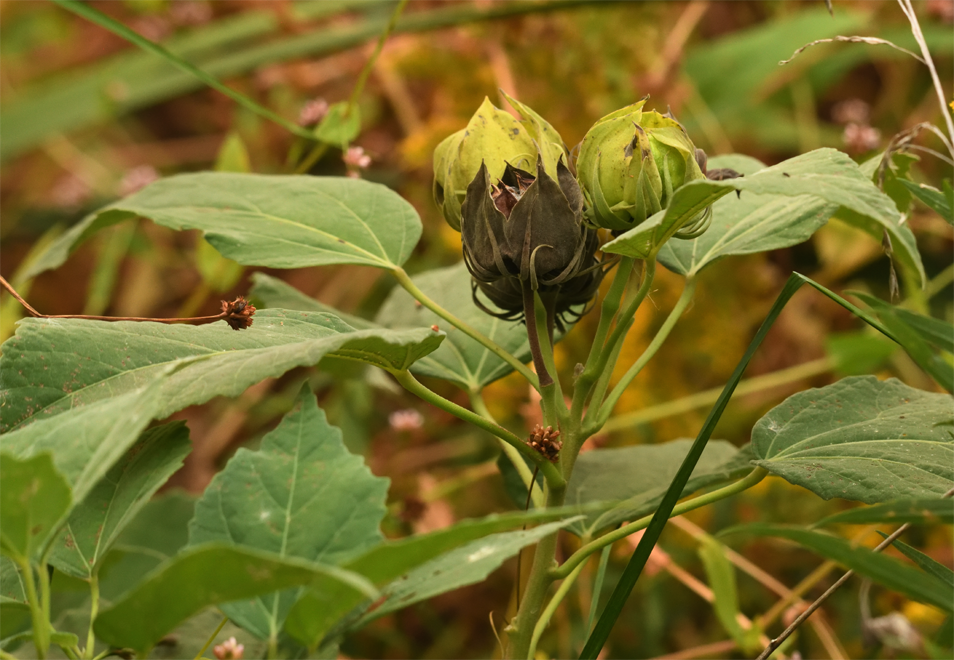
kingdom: Plantae
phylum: Tracheophyta
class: Magnoliopsida
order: Malvales
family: Malvaceae
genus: Hibiscus
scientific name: Hibiscus moscheutos
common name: Common rose-mallow
